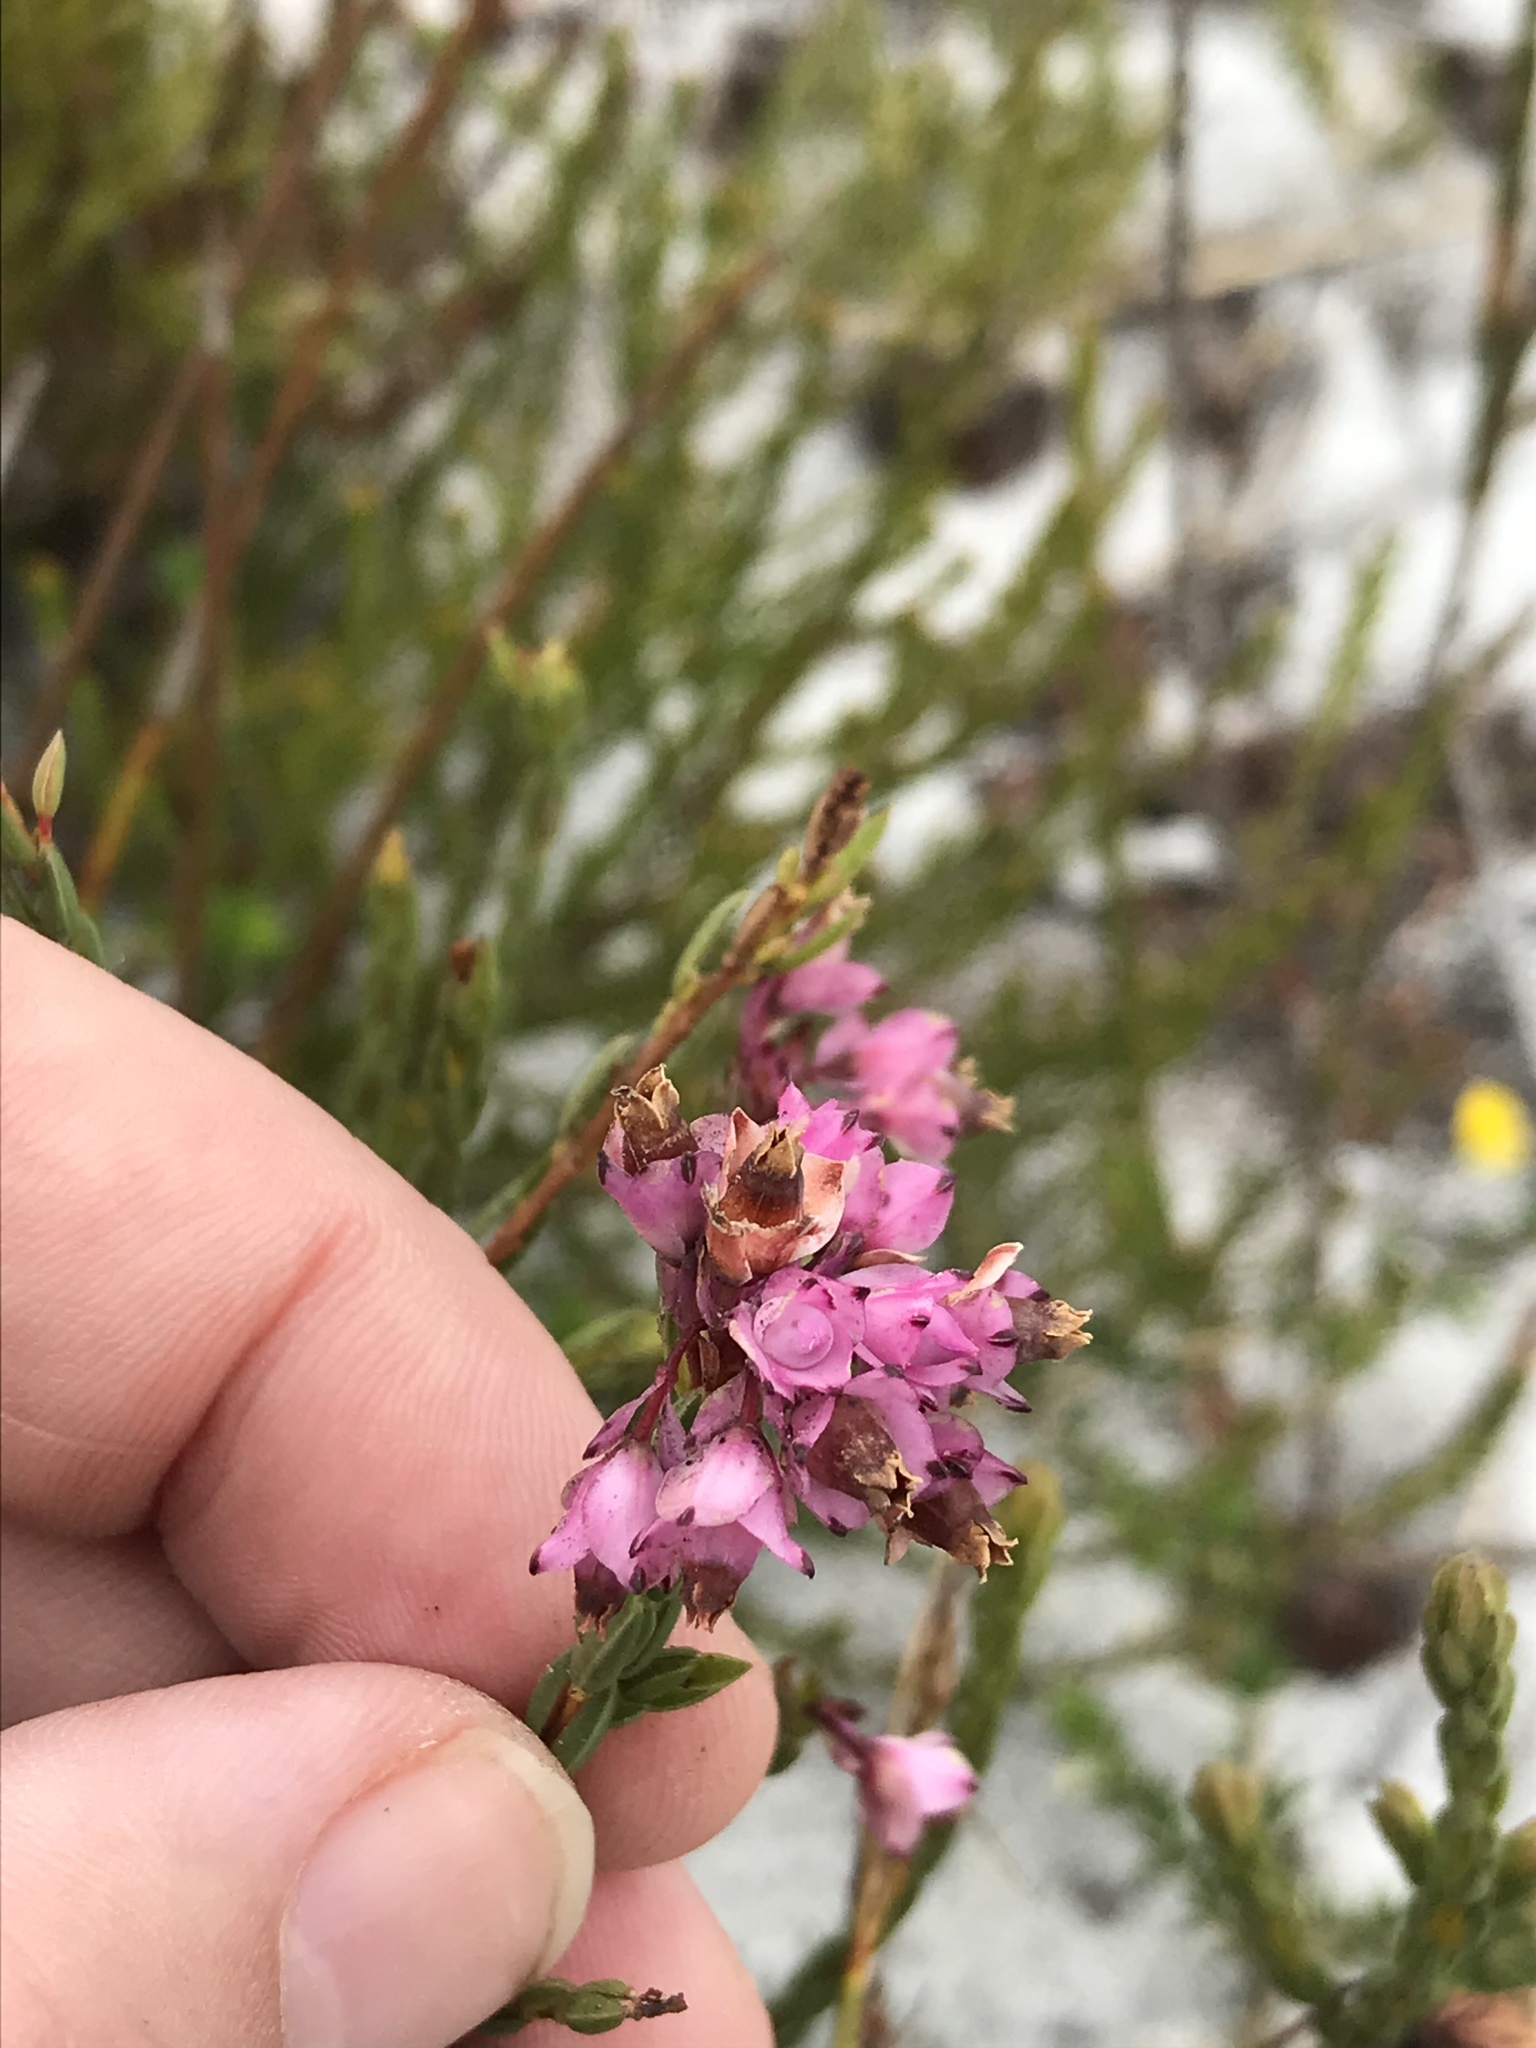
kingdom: Plantae
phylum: Tracheophyta
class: Magnoliopsida
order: Ericales
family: Ericaceae
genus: Erica
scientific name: Erica corifolia
